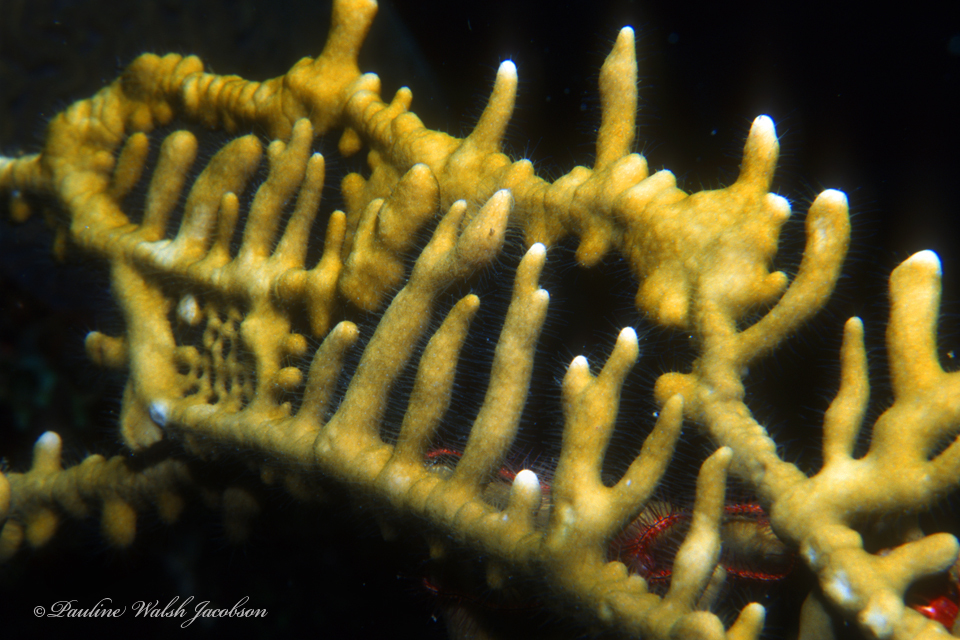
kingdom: Animalia
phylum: Cnidaria
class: Hydrozoa
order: Anthoathecata
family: Milleporidae
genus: Millepora
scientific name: Millepora alcicornis
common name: Branching fire coral
